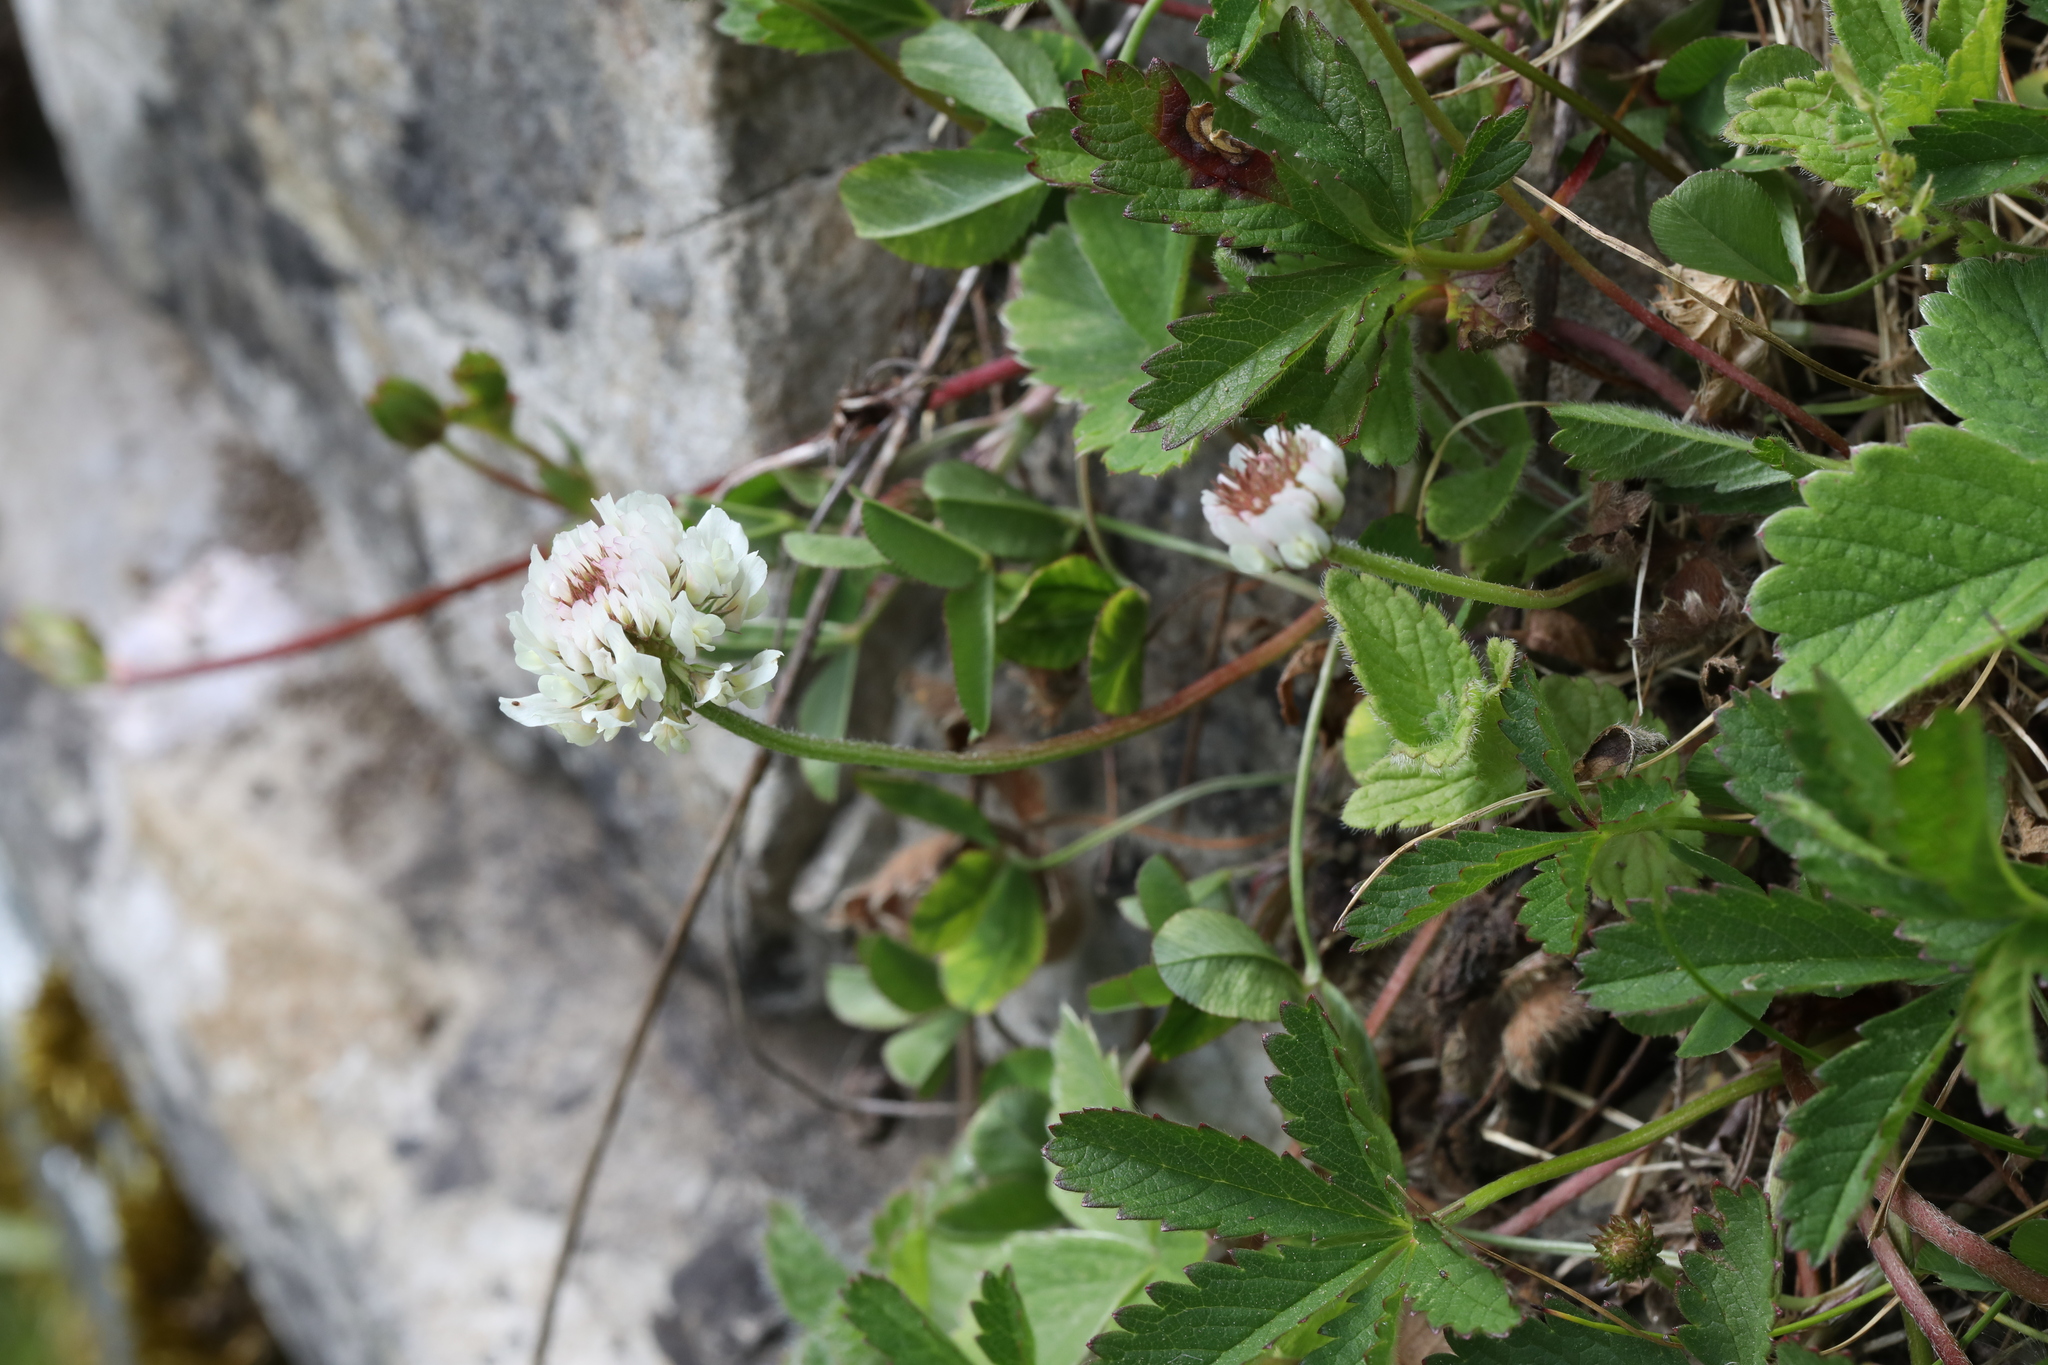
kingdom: Plantae
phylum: Tracheophyta
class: Magnoliopsida
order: Fabales
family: Fabaceae
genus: Trifolium
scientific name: Trifolium repens
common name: White clover
